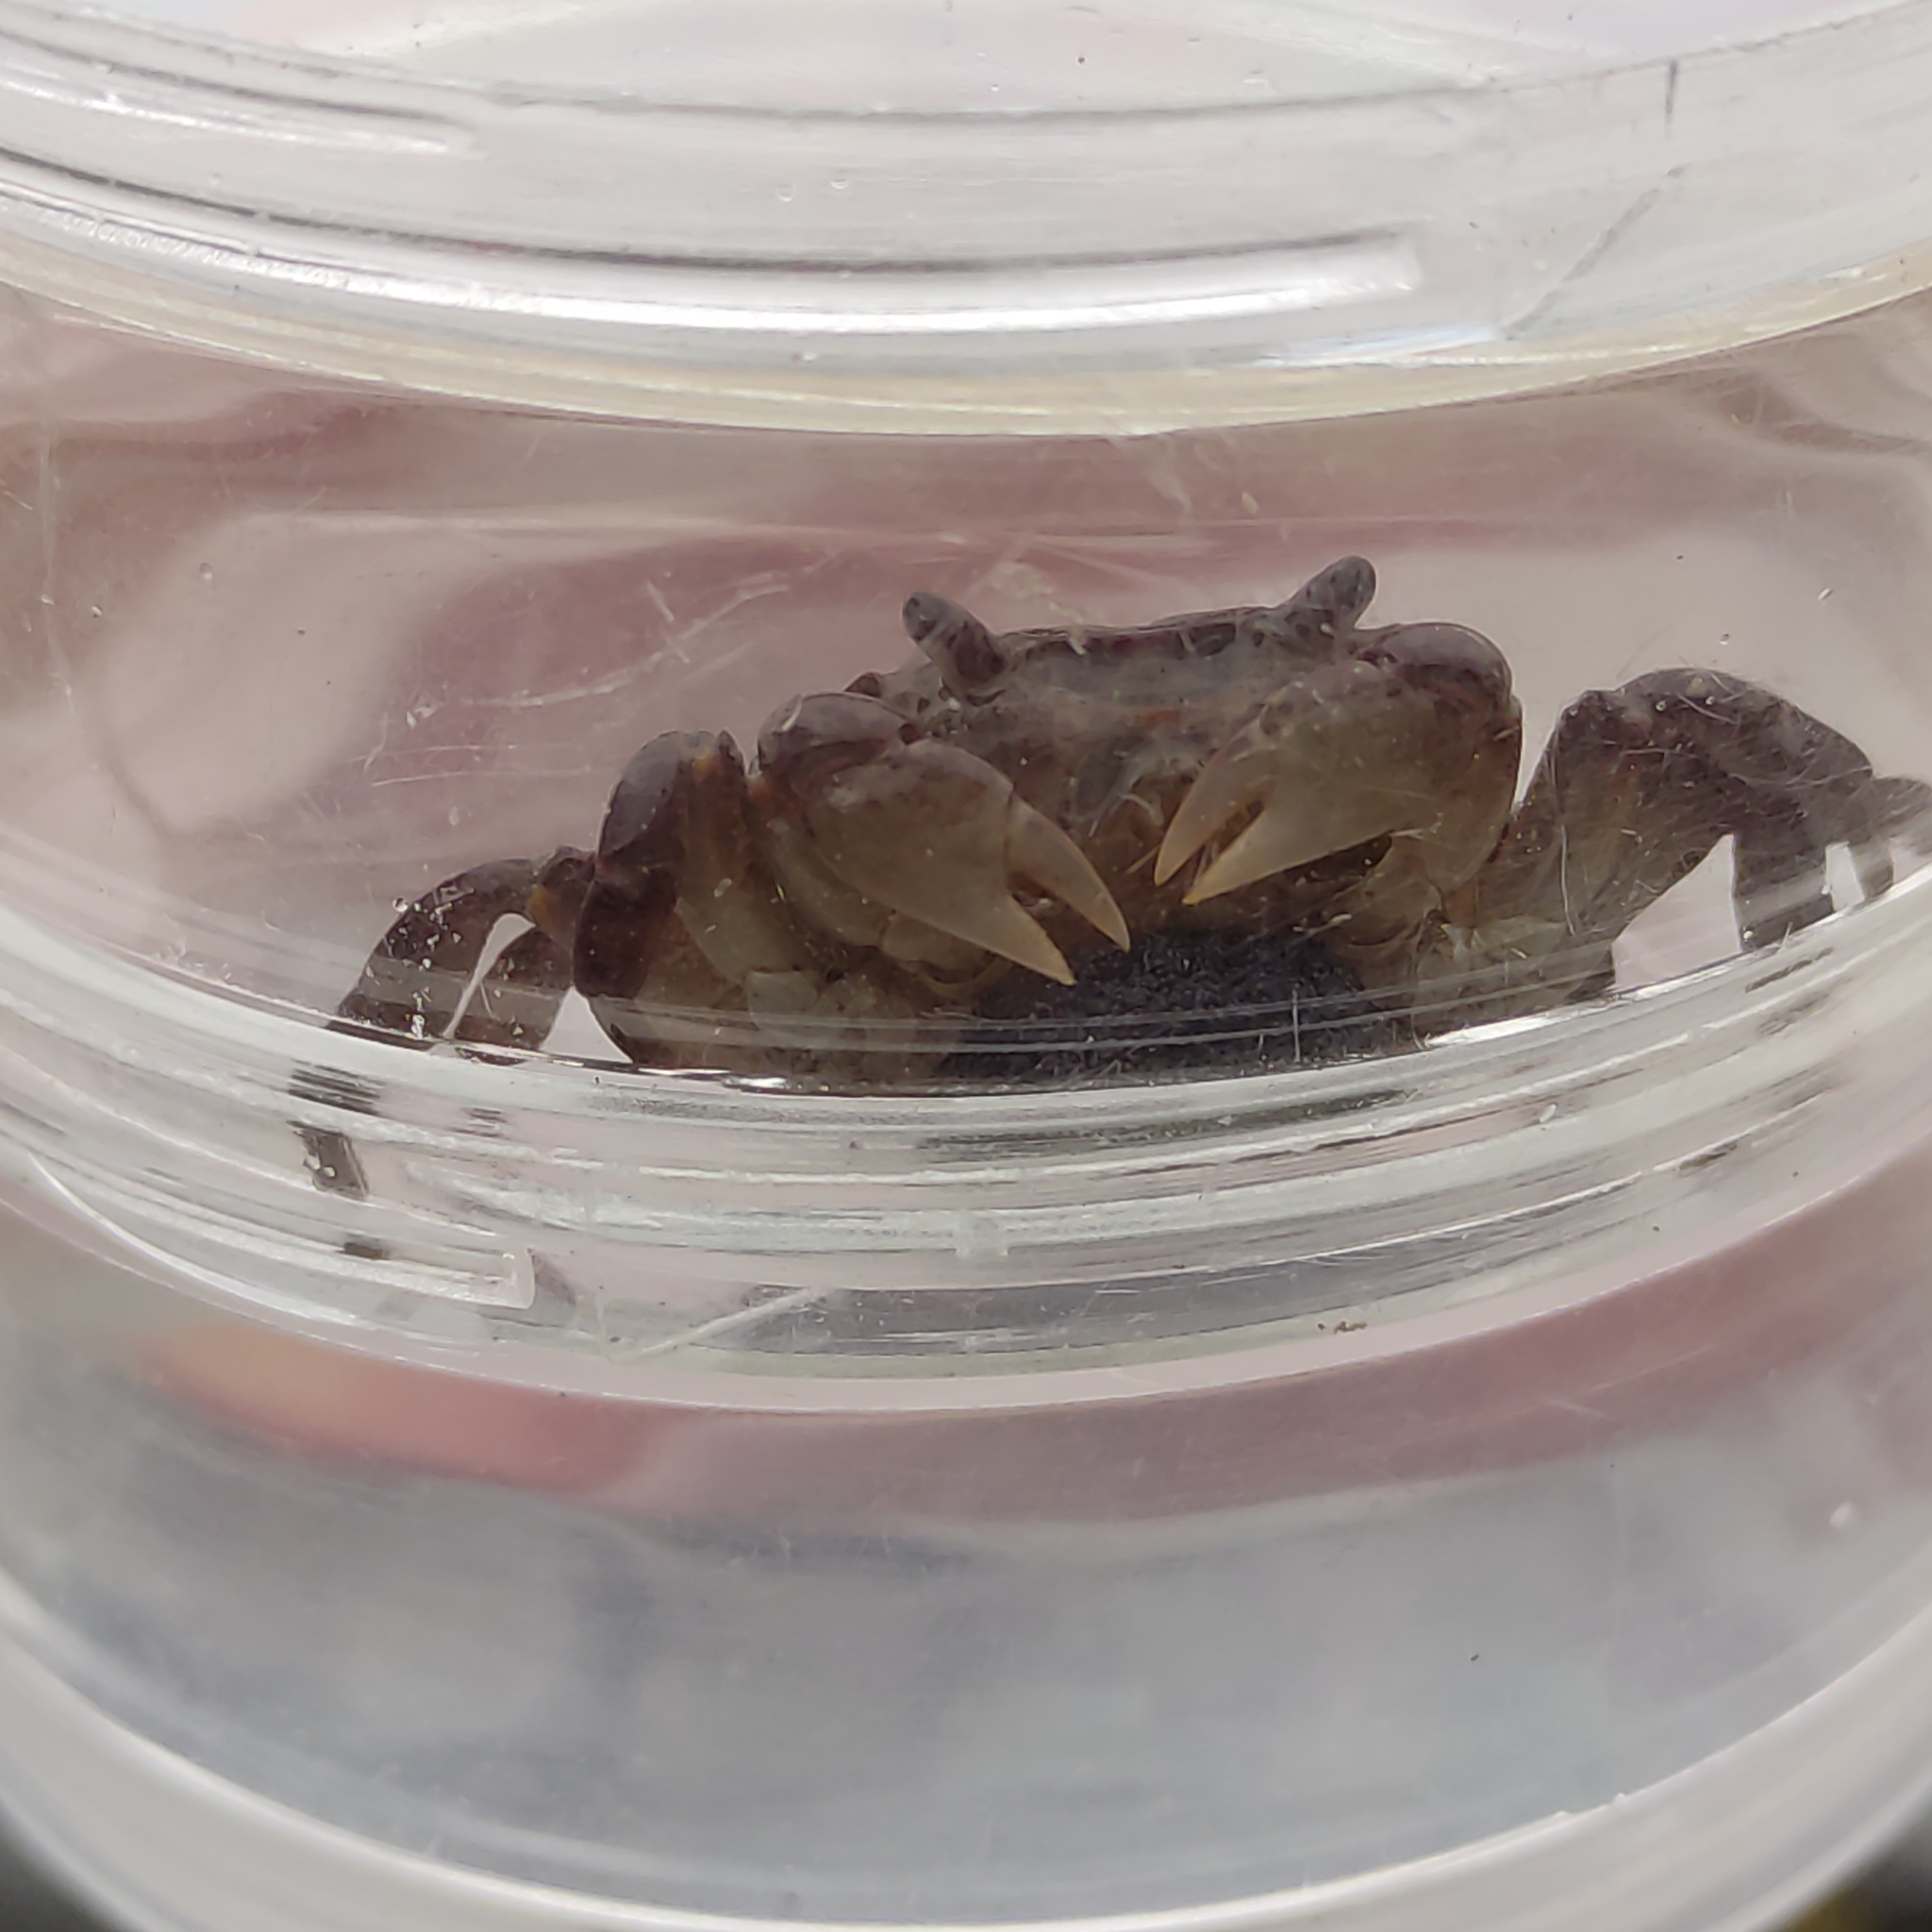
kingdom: Animalia
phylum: Arthropoda
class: Malacostraca
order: Decapoda
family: Varunidae
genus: Cyclograpsus
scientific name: Cyclograpsus lavauxi
